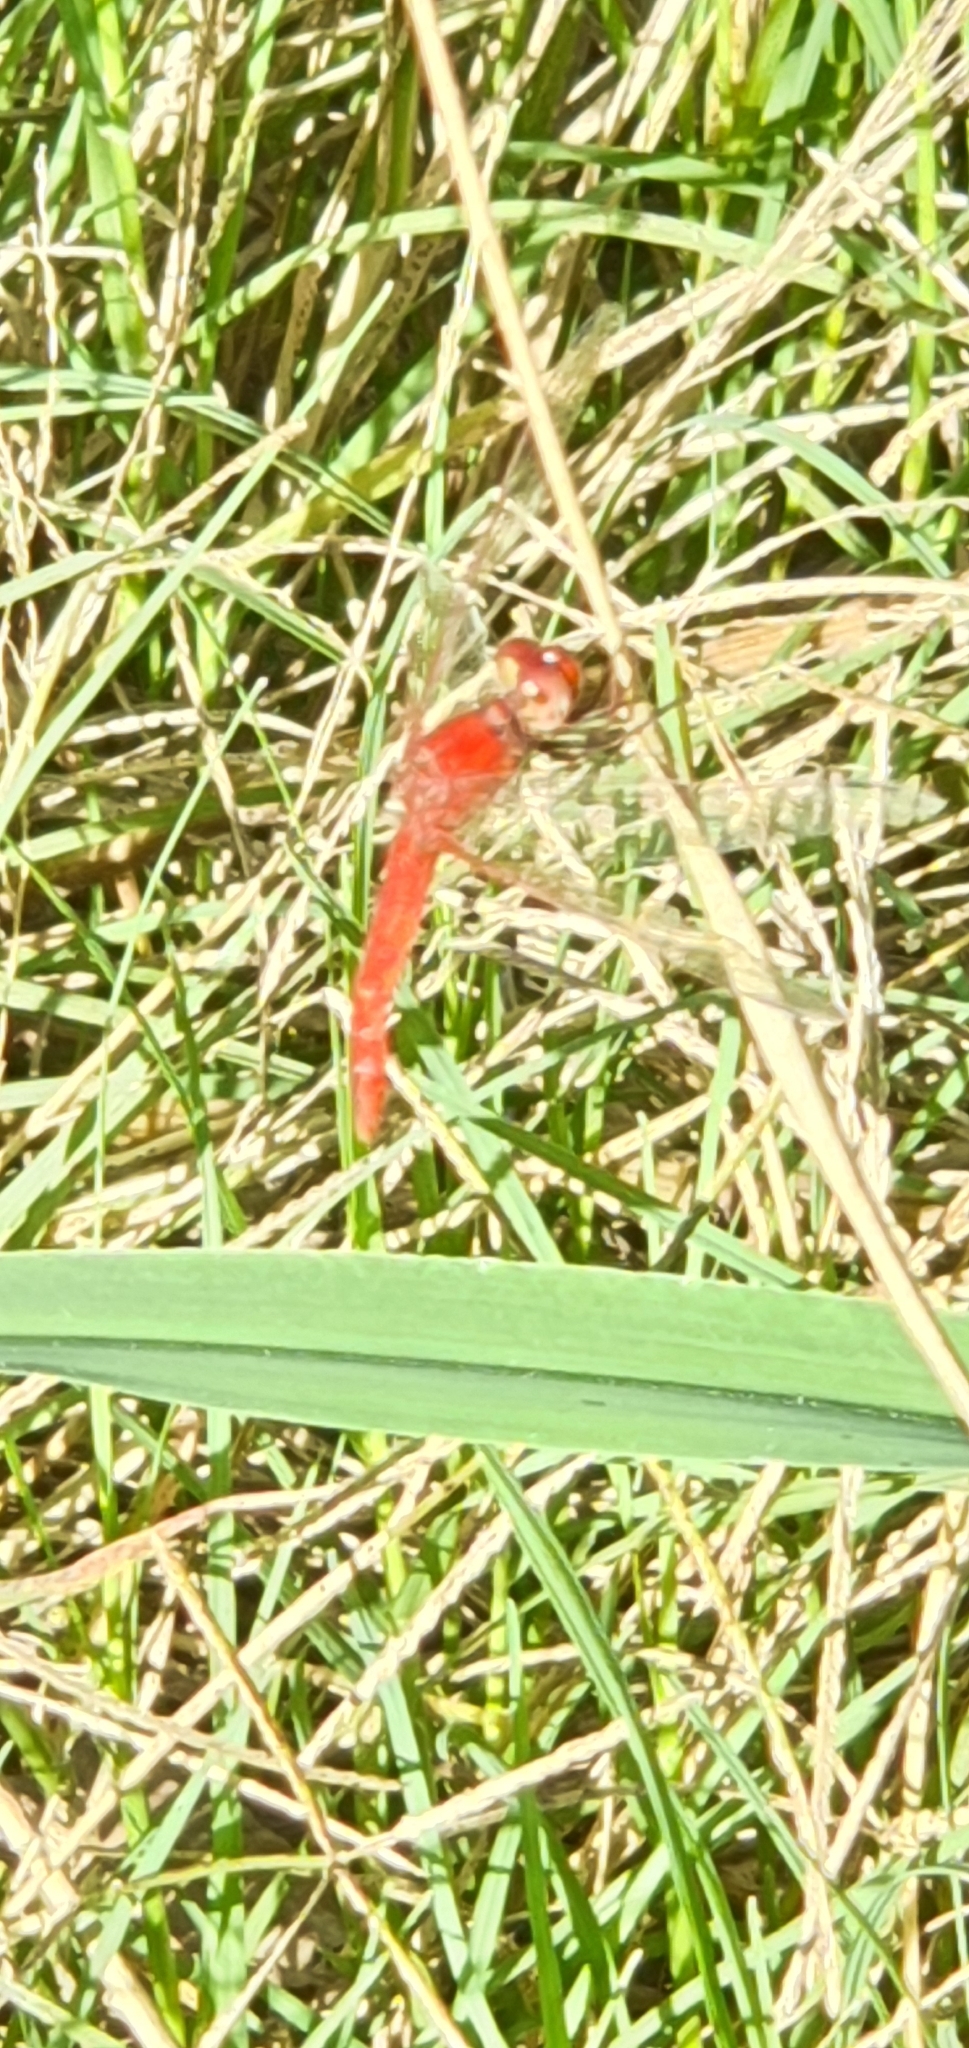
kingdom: Animalia
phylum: Arthropoda
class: Insecta
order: Odonata
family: Libellulidae
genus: Diplacodes
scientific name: Diplacodes haematodes
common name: Scarlet percher
